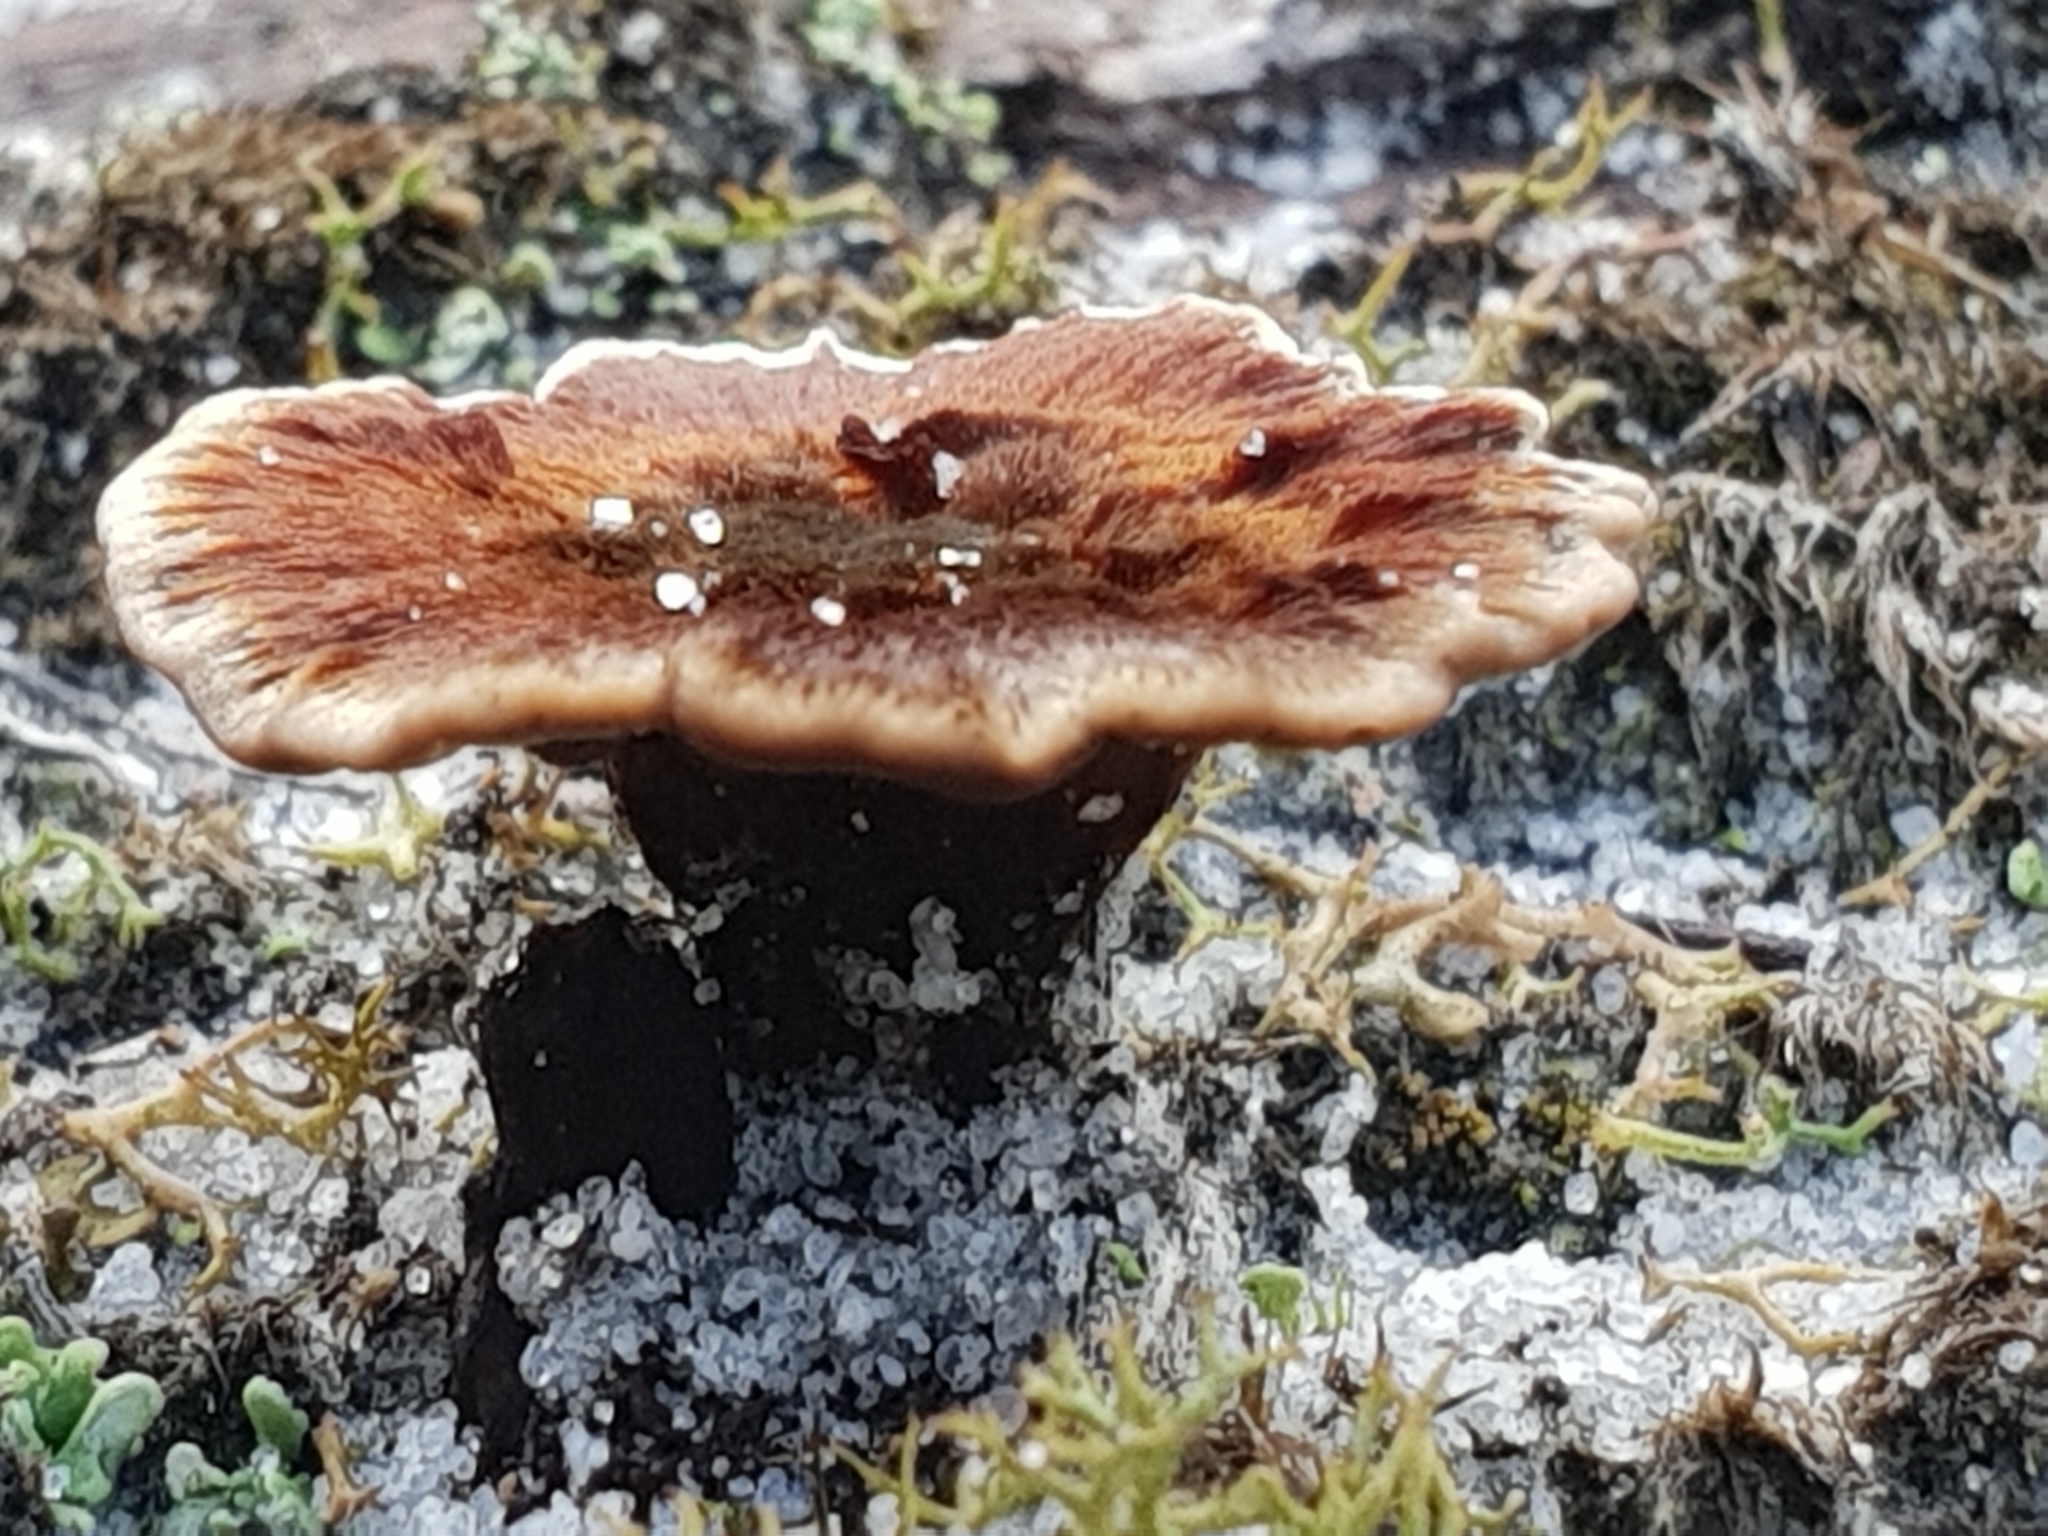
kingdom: Fungi
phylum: Basidiomycota
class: Agaricomycetes
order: Hymenochaetales
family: Hymenochaetaceae
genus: Coltricia
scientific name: Coltricia australica
